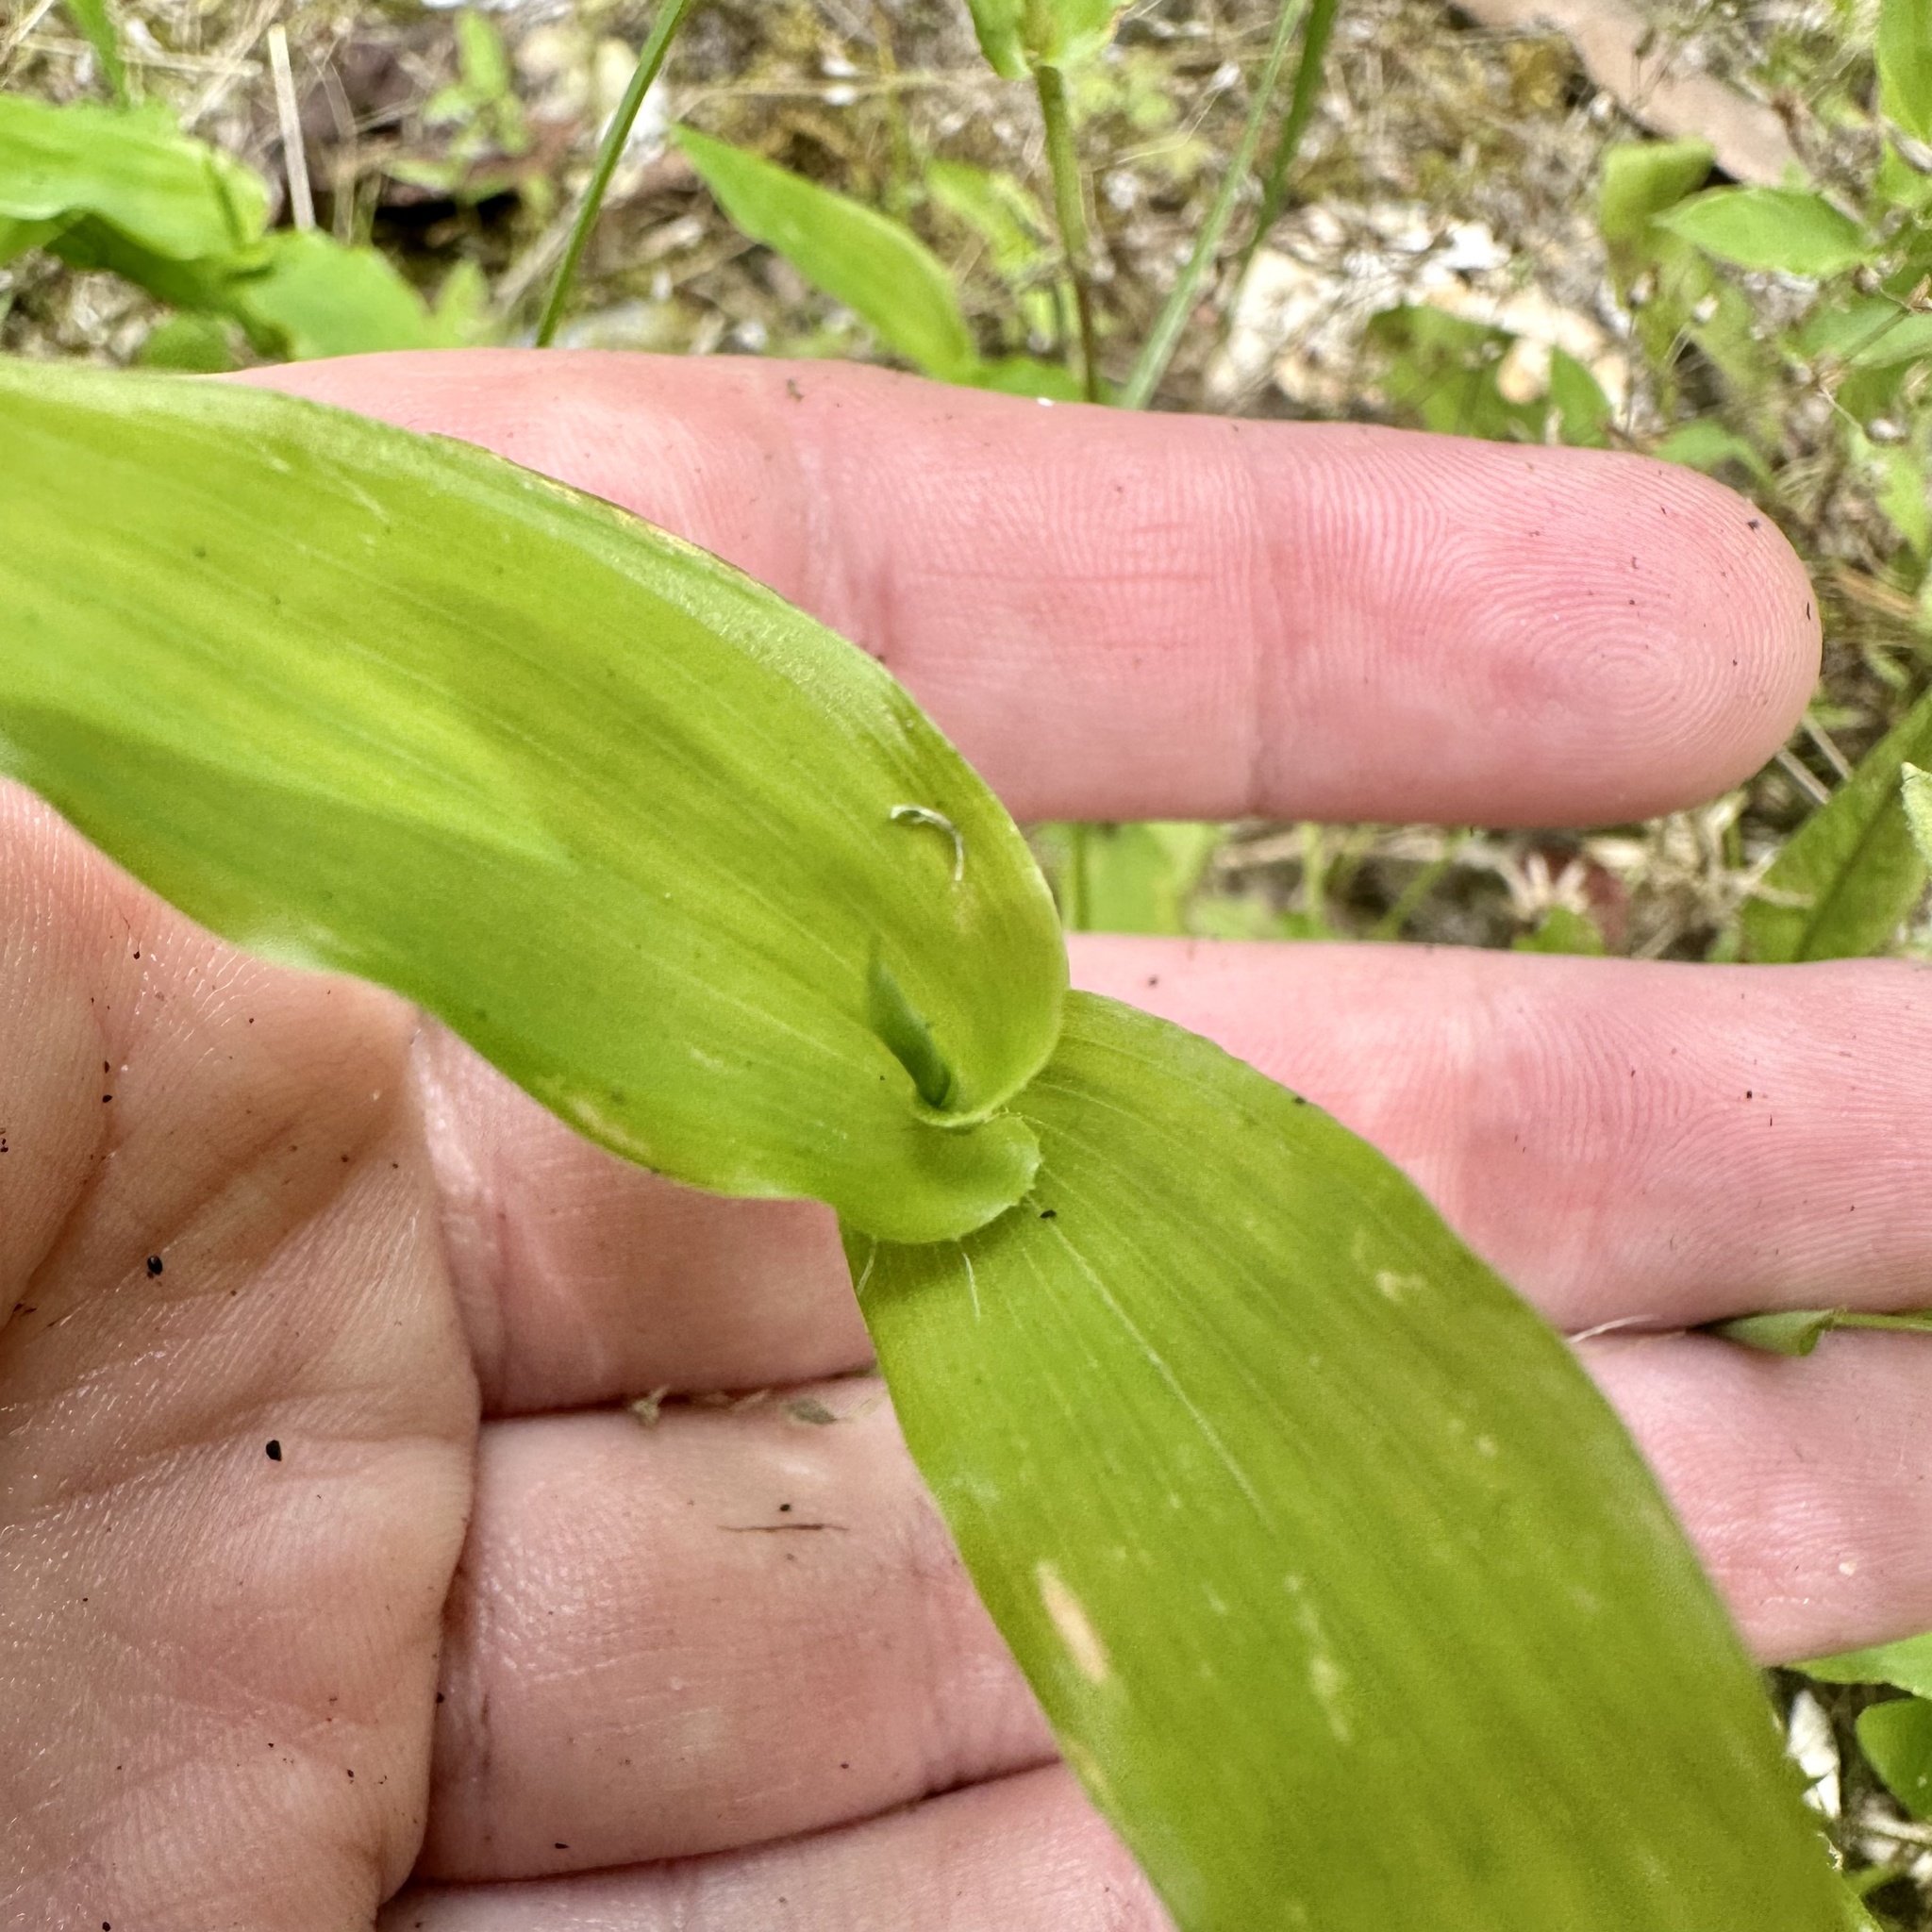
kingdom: Plantae
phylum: Tracheophyta
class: Liliopsida
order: Poales
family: Poaceae
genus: Arthraxon
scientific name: Arthraxon hispidus
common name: Small carpgrass
